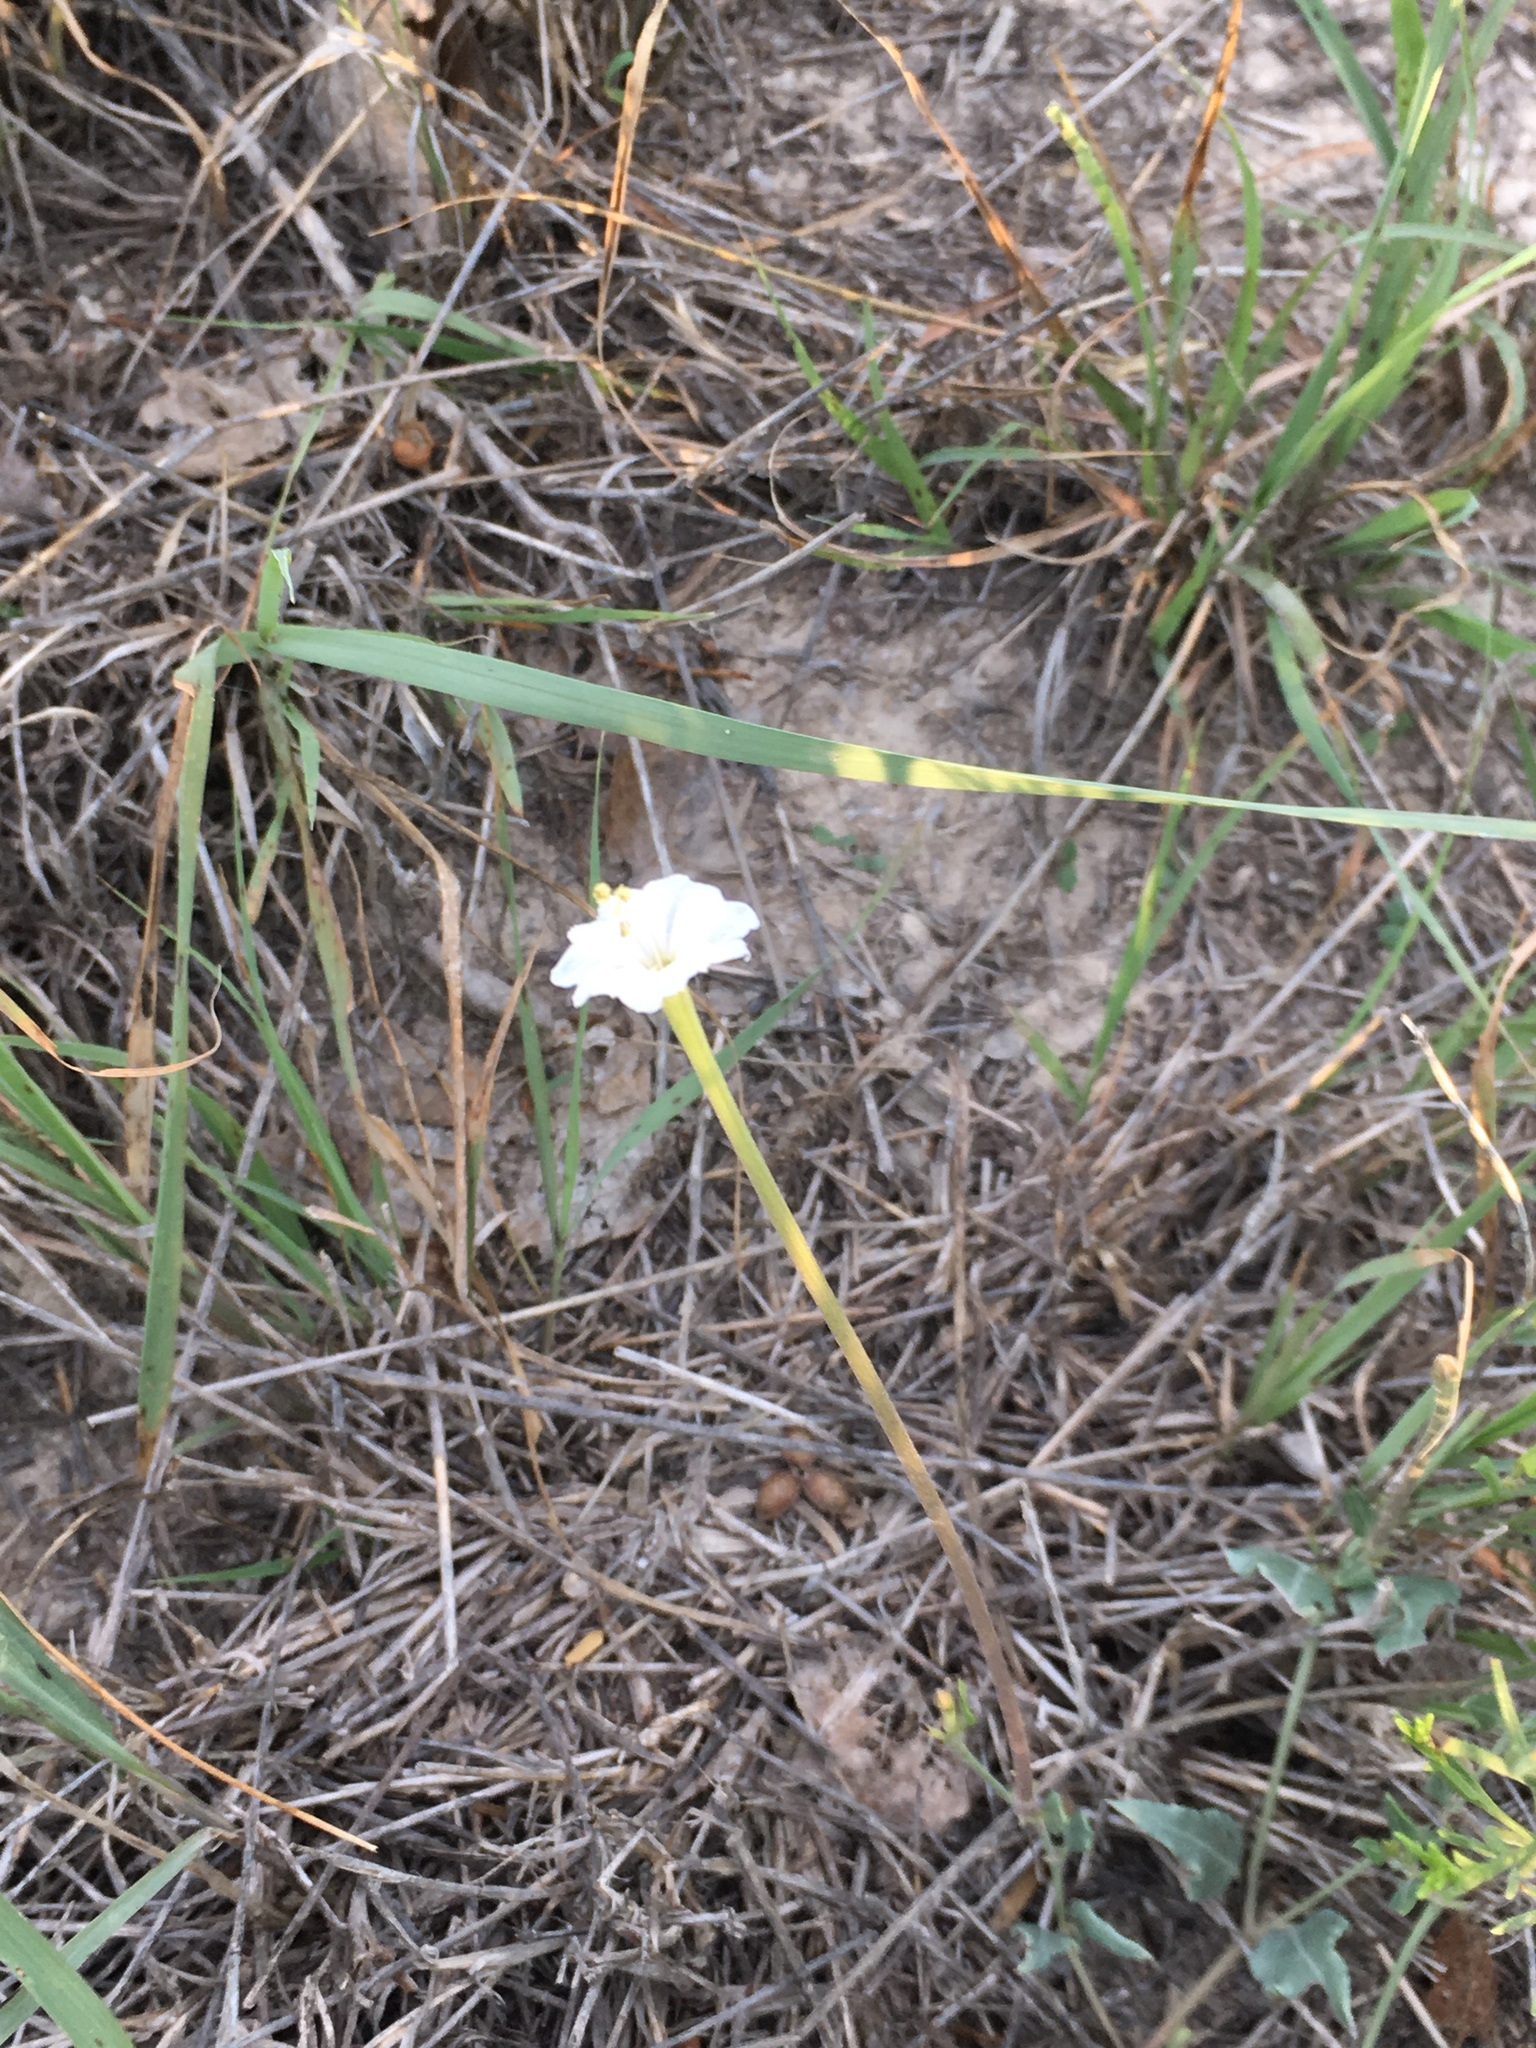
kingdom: Plantae
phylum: Tracheophyta
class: Magnoliopsida
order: Caryophyllales
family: Nyctaginaceae
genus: Acleisanthes
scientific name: Acleisanthes longiflora
